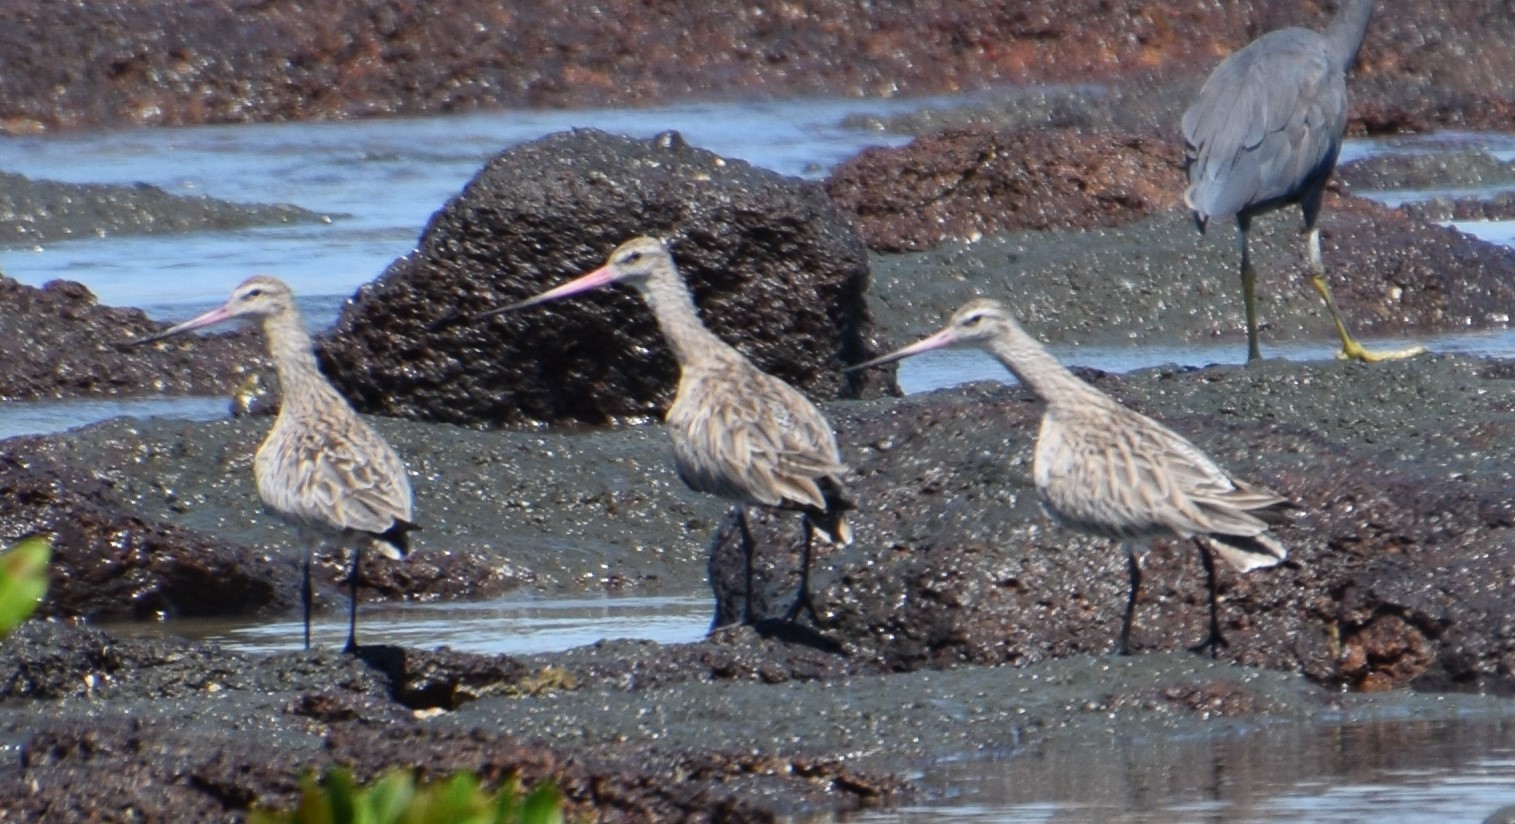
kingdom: Animalia
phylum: Chordata
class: Aves
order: Charadriiformes
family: Scolopacidae
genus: Limosa
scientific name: Limosa lapponica
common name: Bar-tailed godwit
